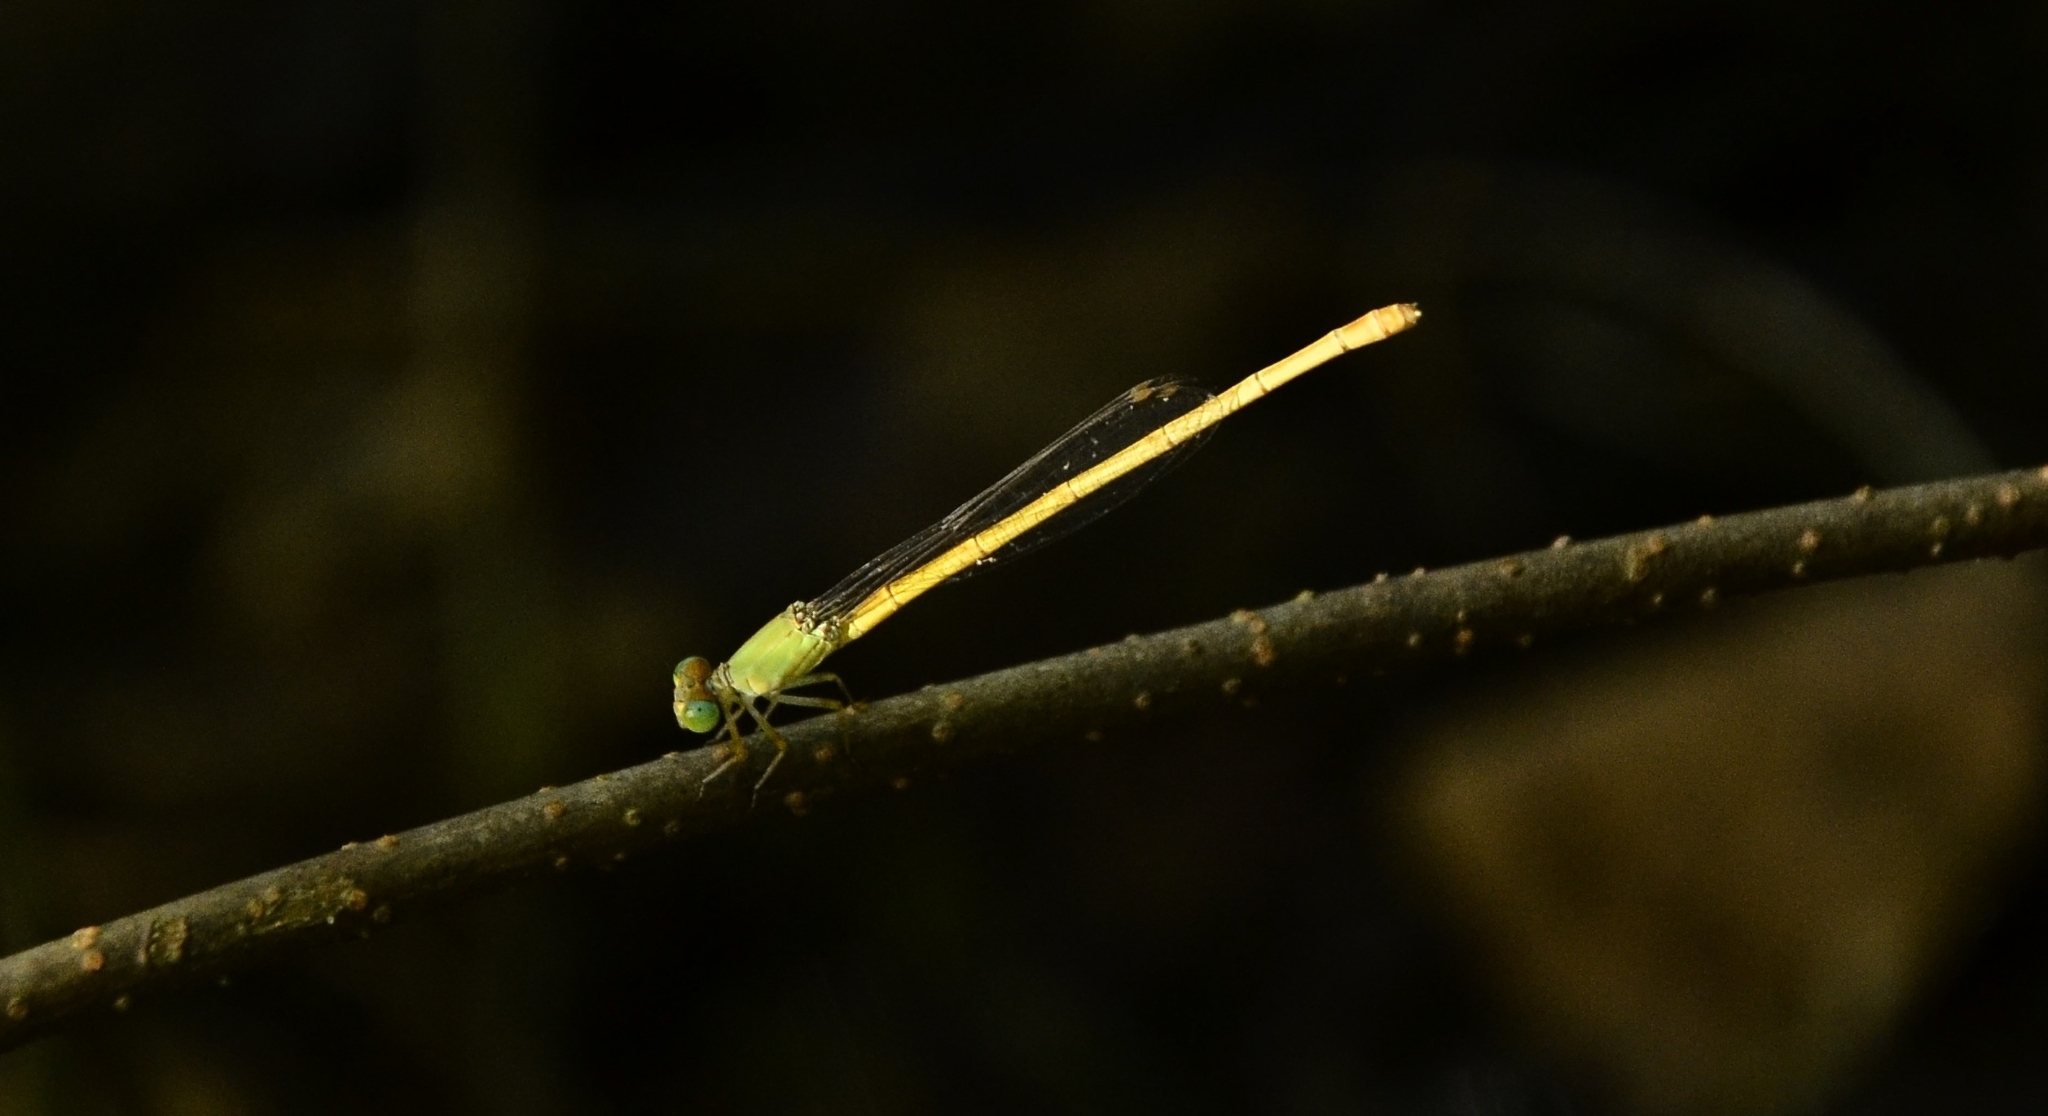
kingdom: Animalia
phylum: Arthropoda
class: Insecta
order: Odonata
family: Coenagrionidae
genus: Ceriagrion
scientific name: Ceriagrion coromandelianum
